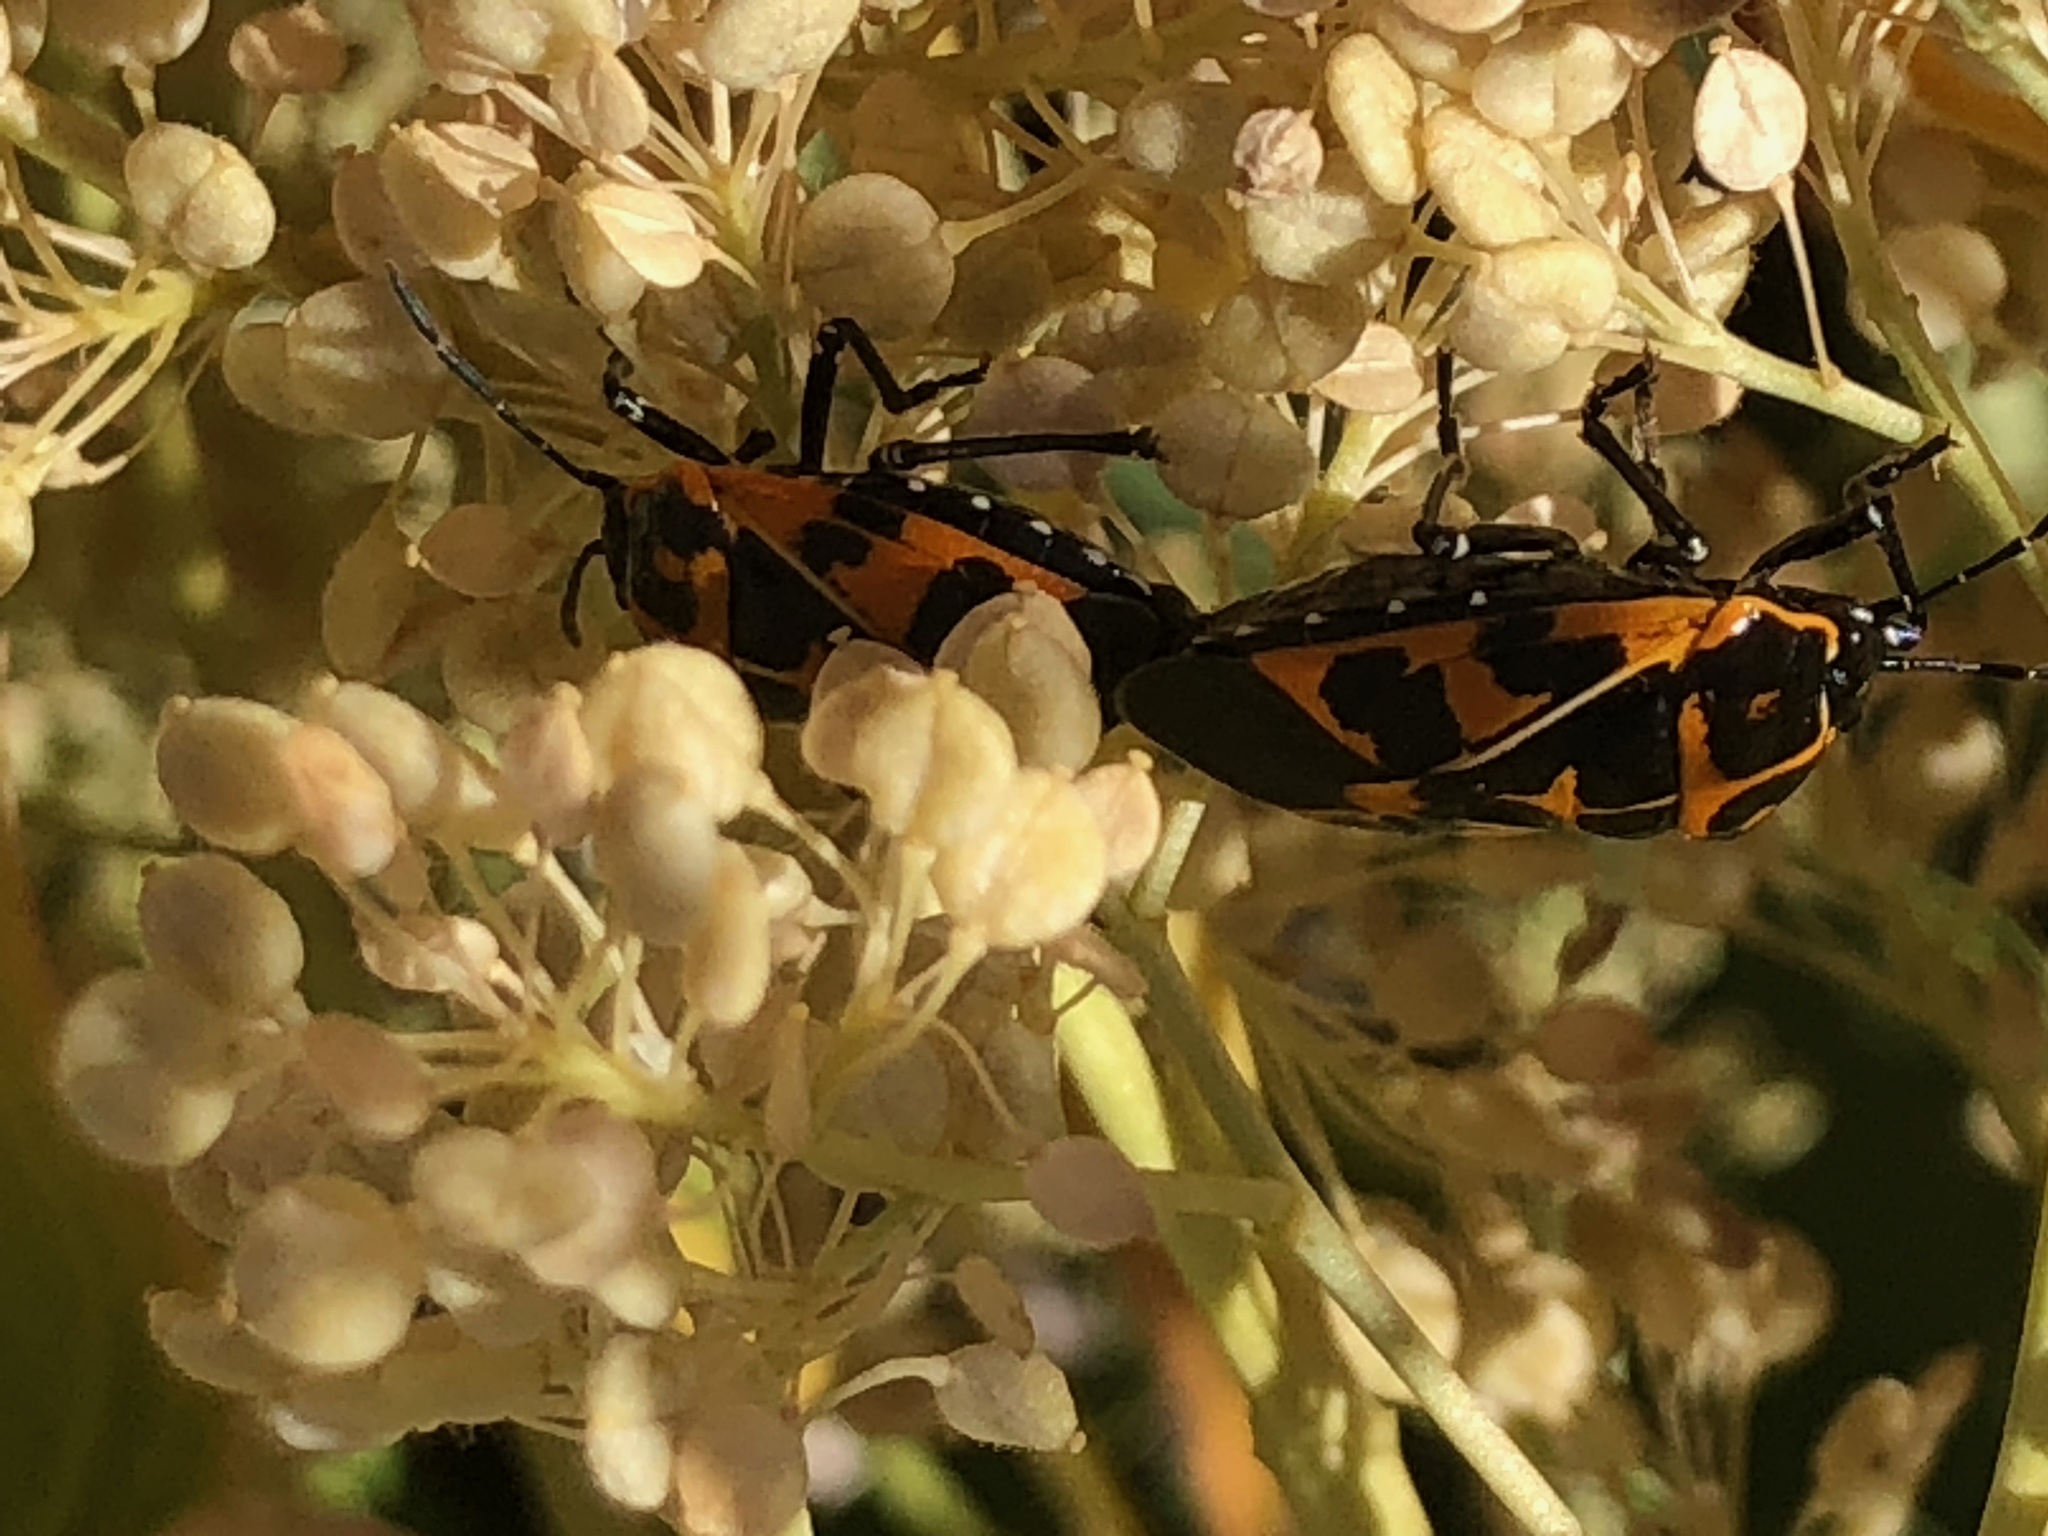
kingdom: Animalia
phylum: Arthropoda
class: Insecta
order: Hemiptera
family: Pentatomidae
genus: Murgantia
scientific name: Murgantia histrionica
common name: Harlequin bug
